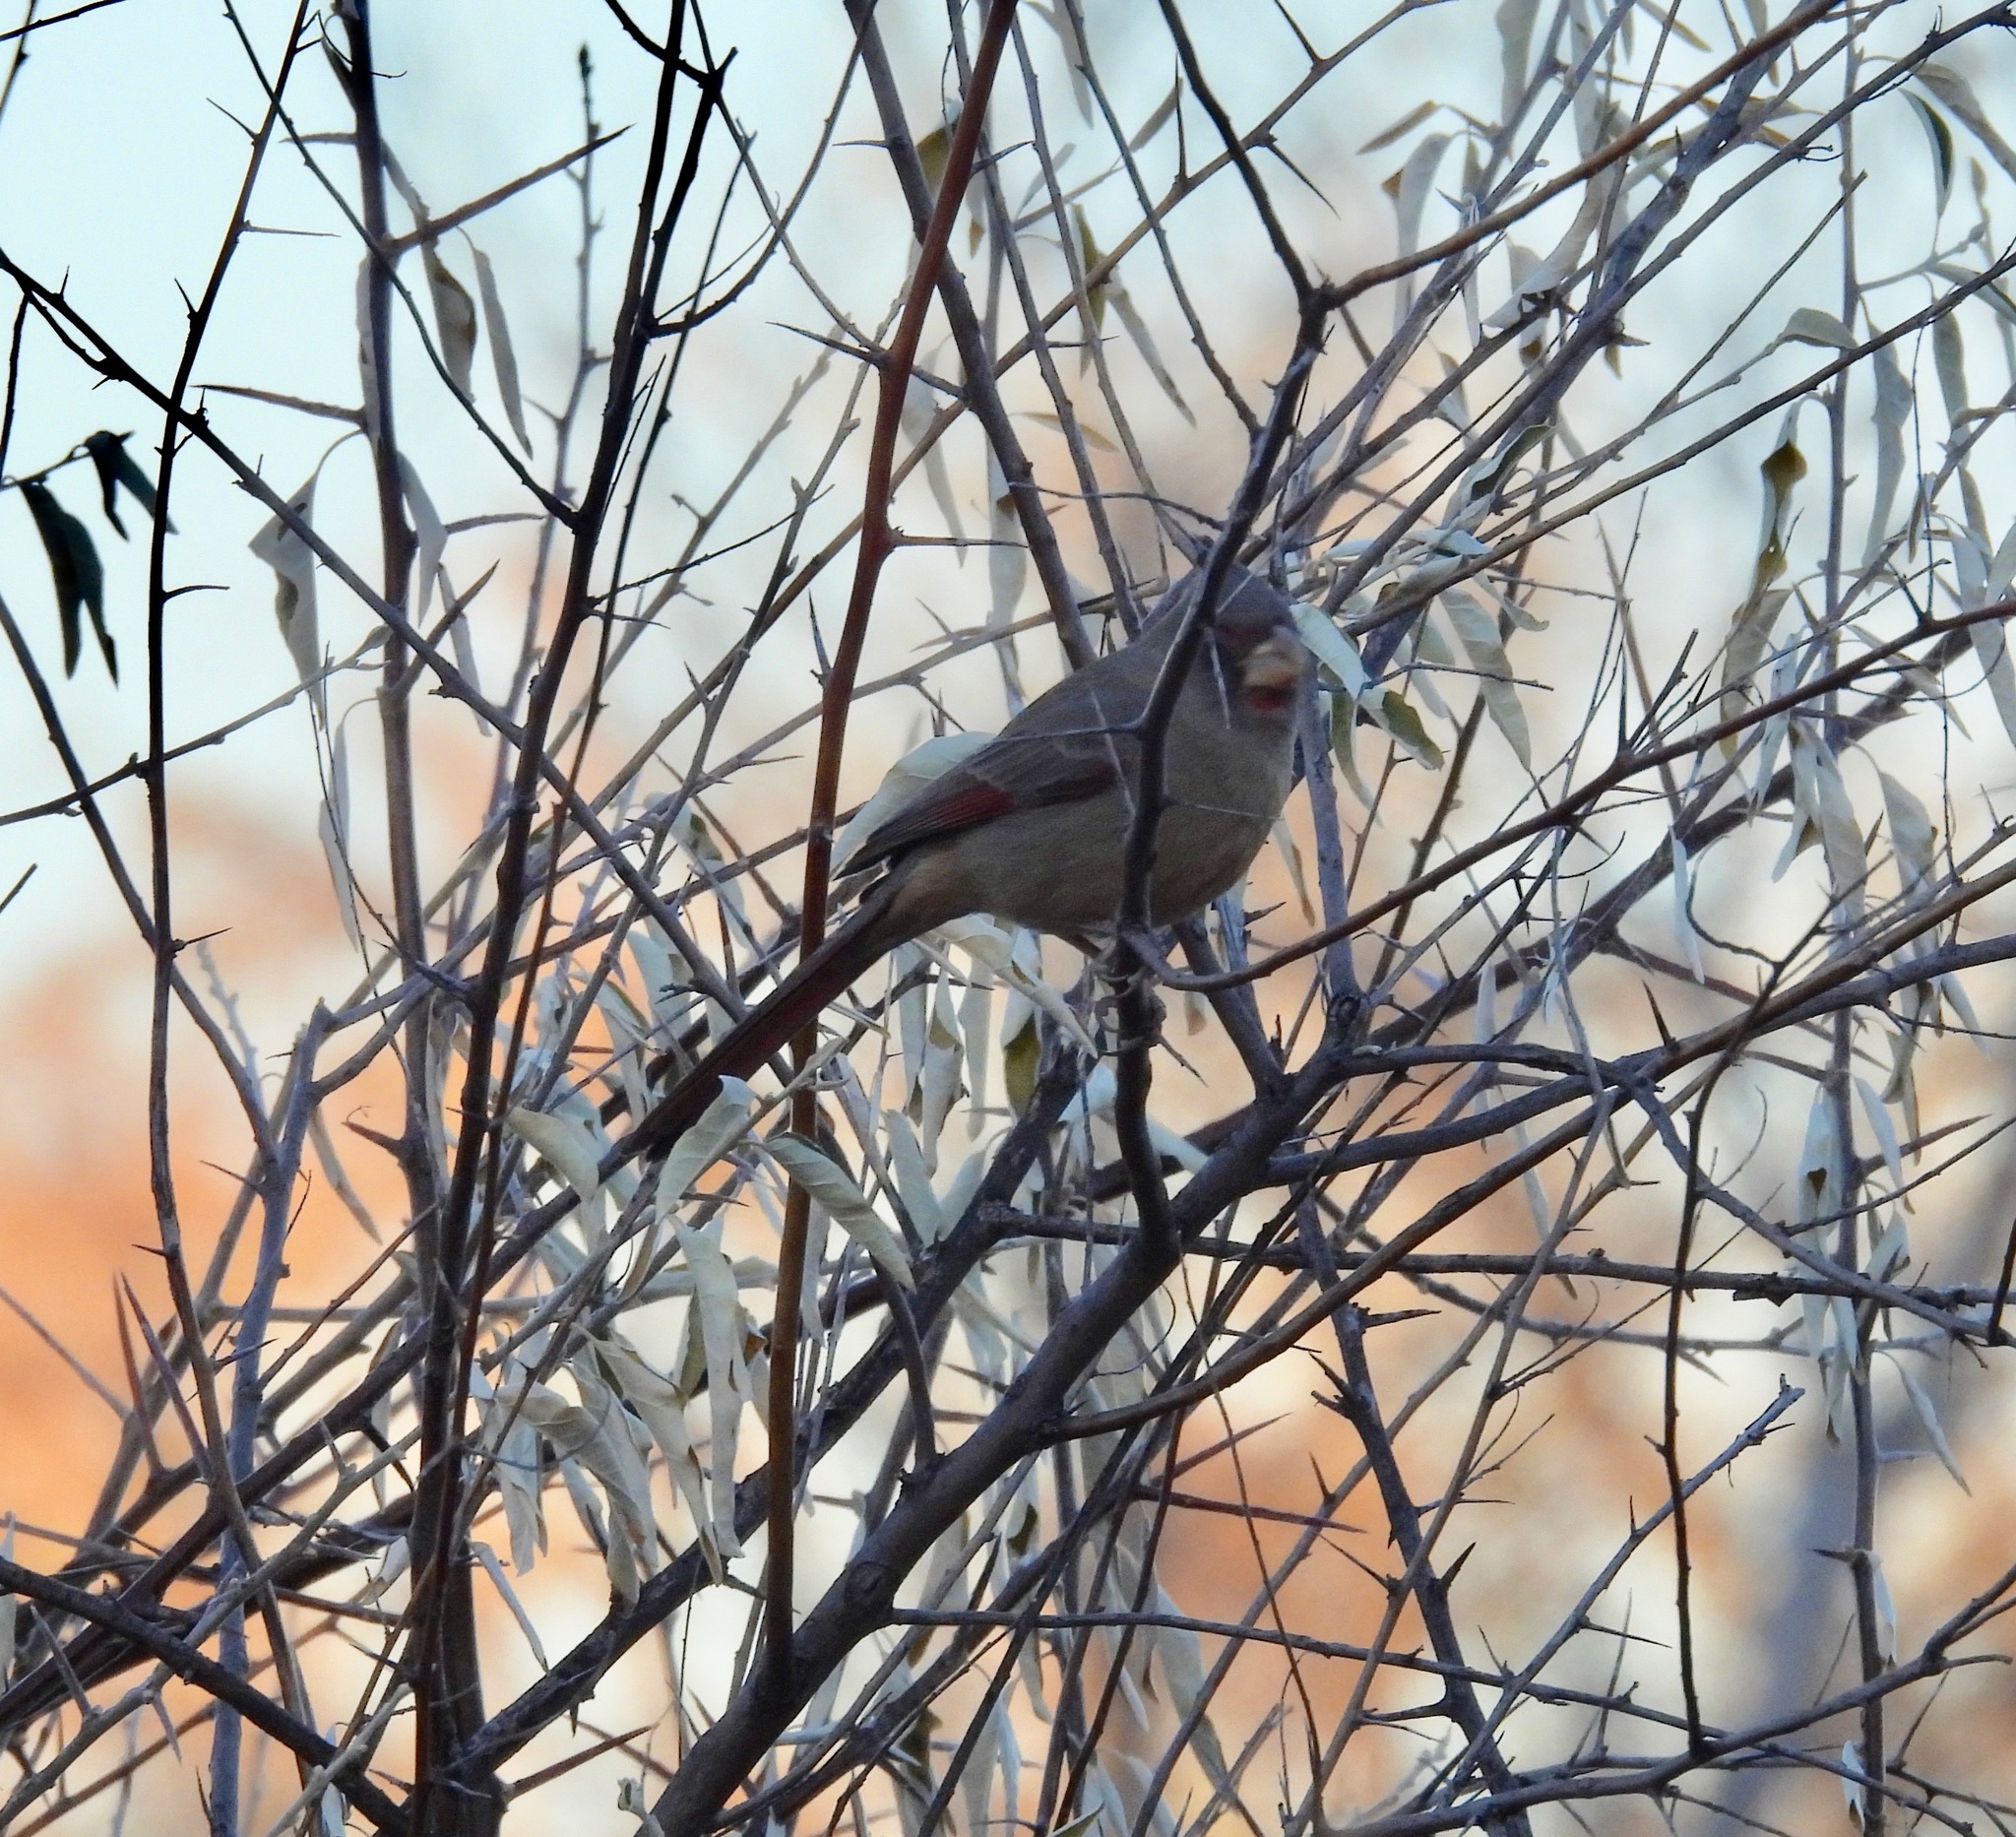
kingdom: Animalia
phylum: Chordata
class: Aves
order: Passeriformes
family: Cardinalidae
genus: Cardinalis
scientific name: Cardinalis sinuatus
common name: Pyrrhuloxia
